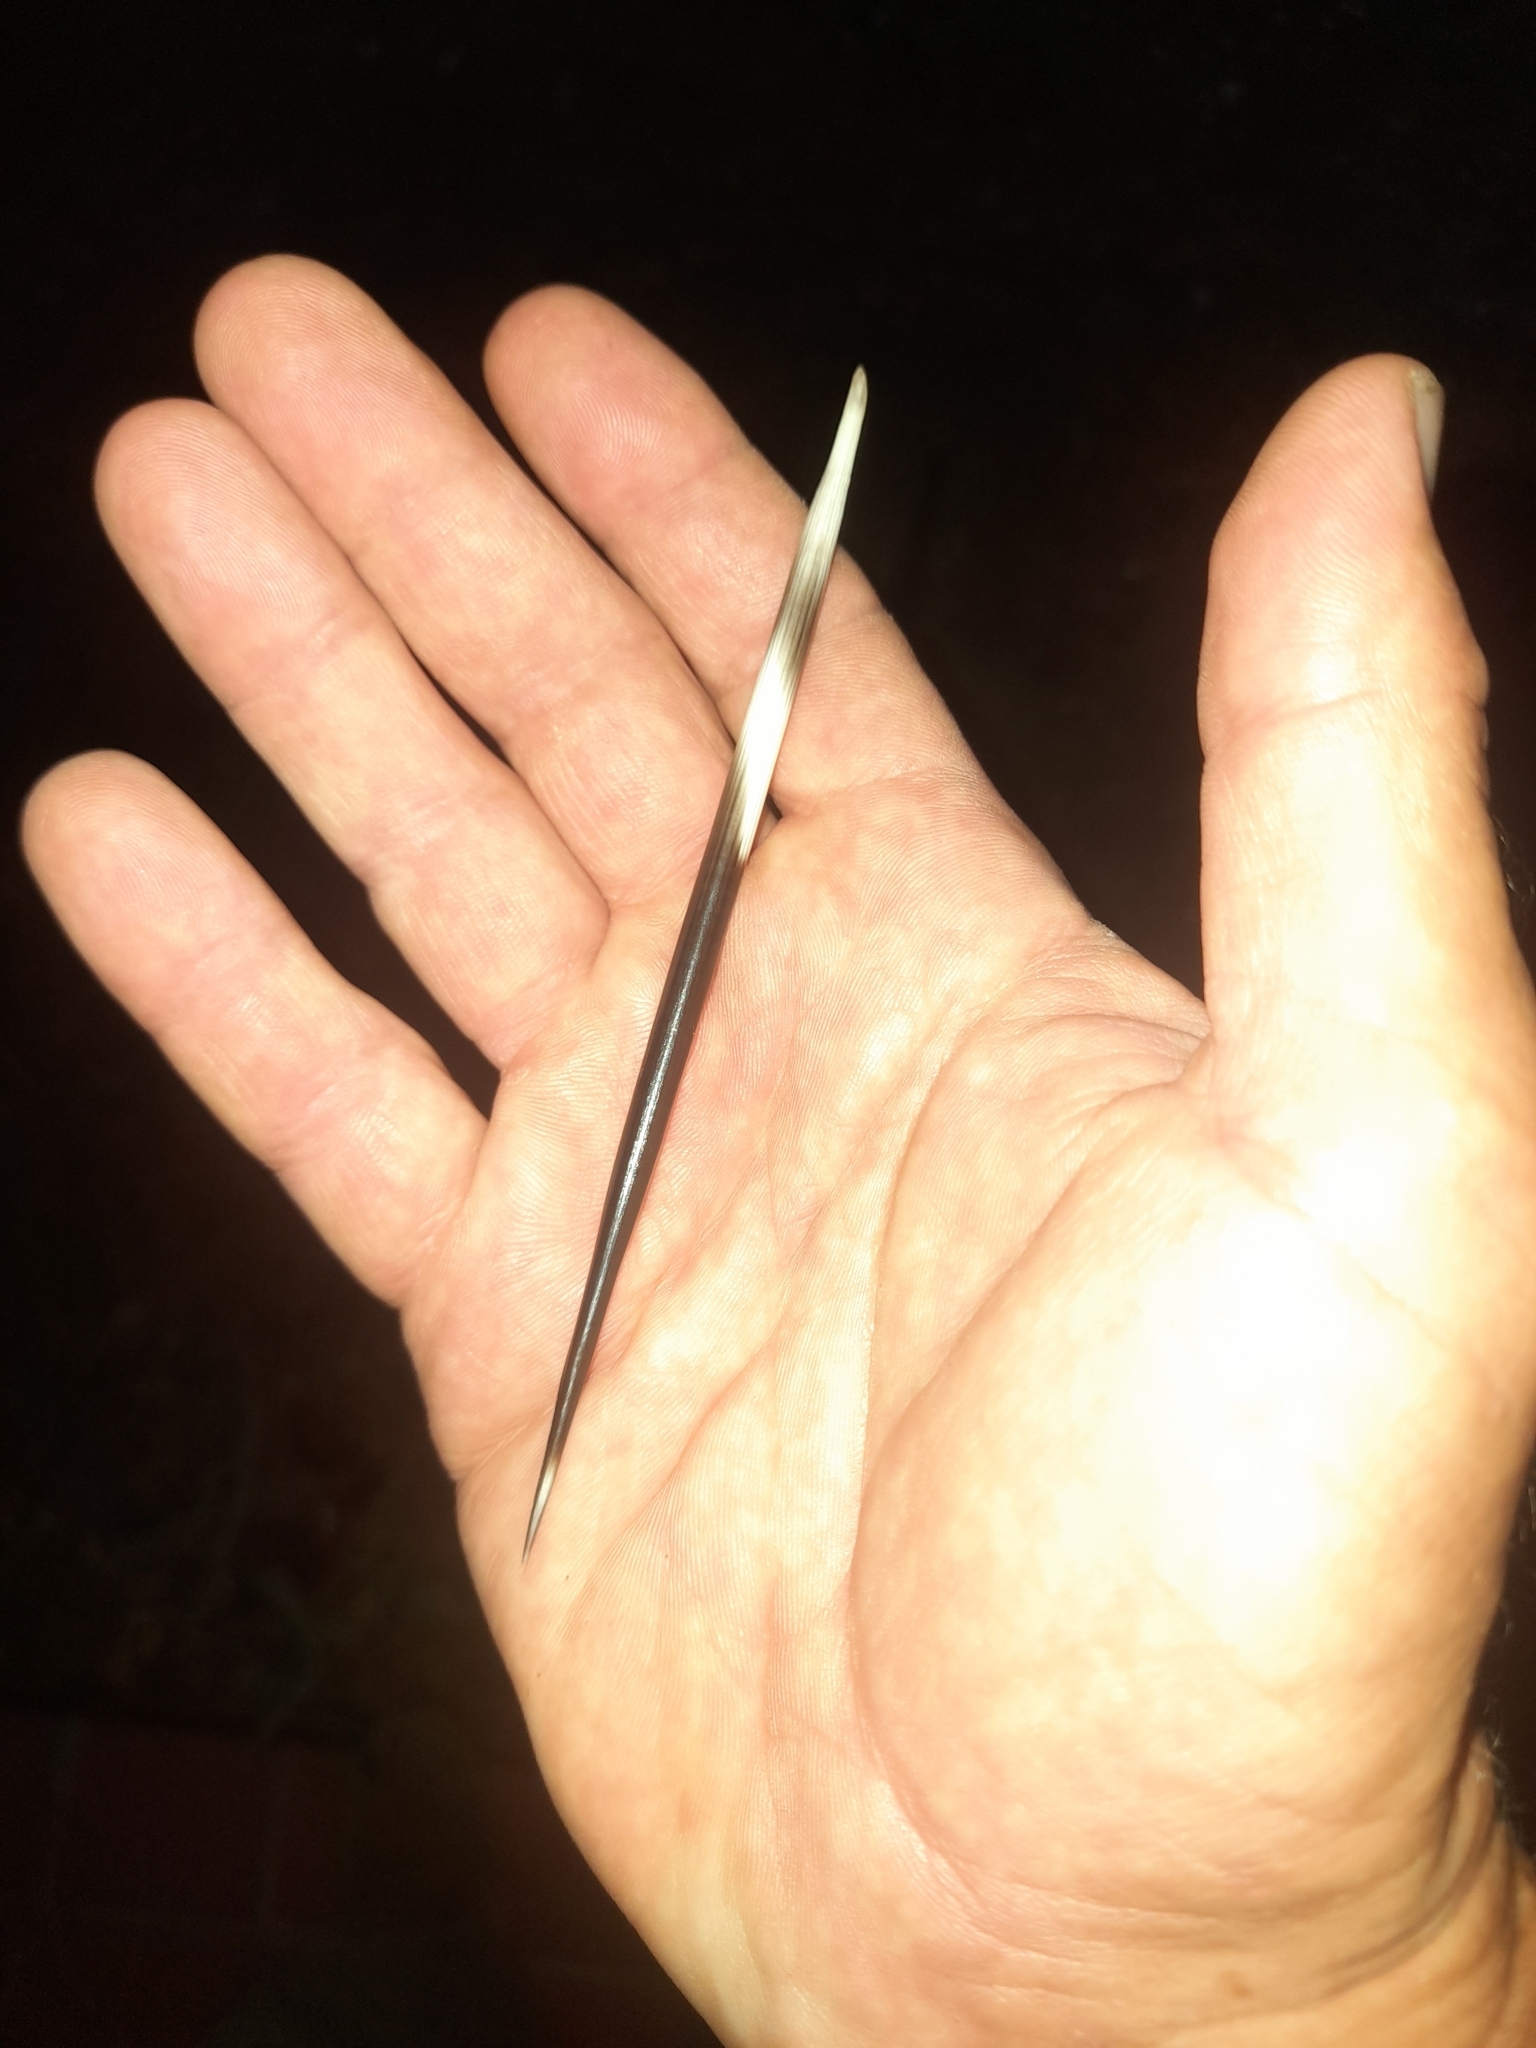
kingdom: Animalia
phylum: Chordata
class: Mammalia
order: Rodentia
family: Hystricidae
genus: Hystrix
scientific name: Hystrix cristata
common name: Crested porcupine
